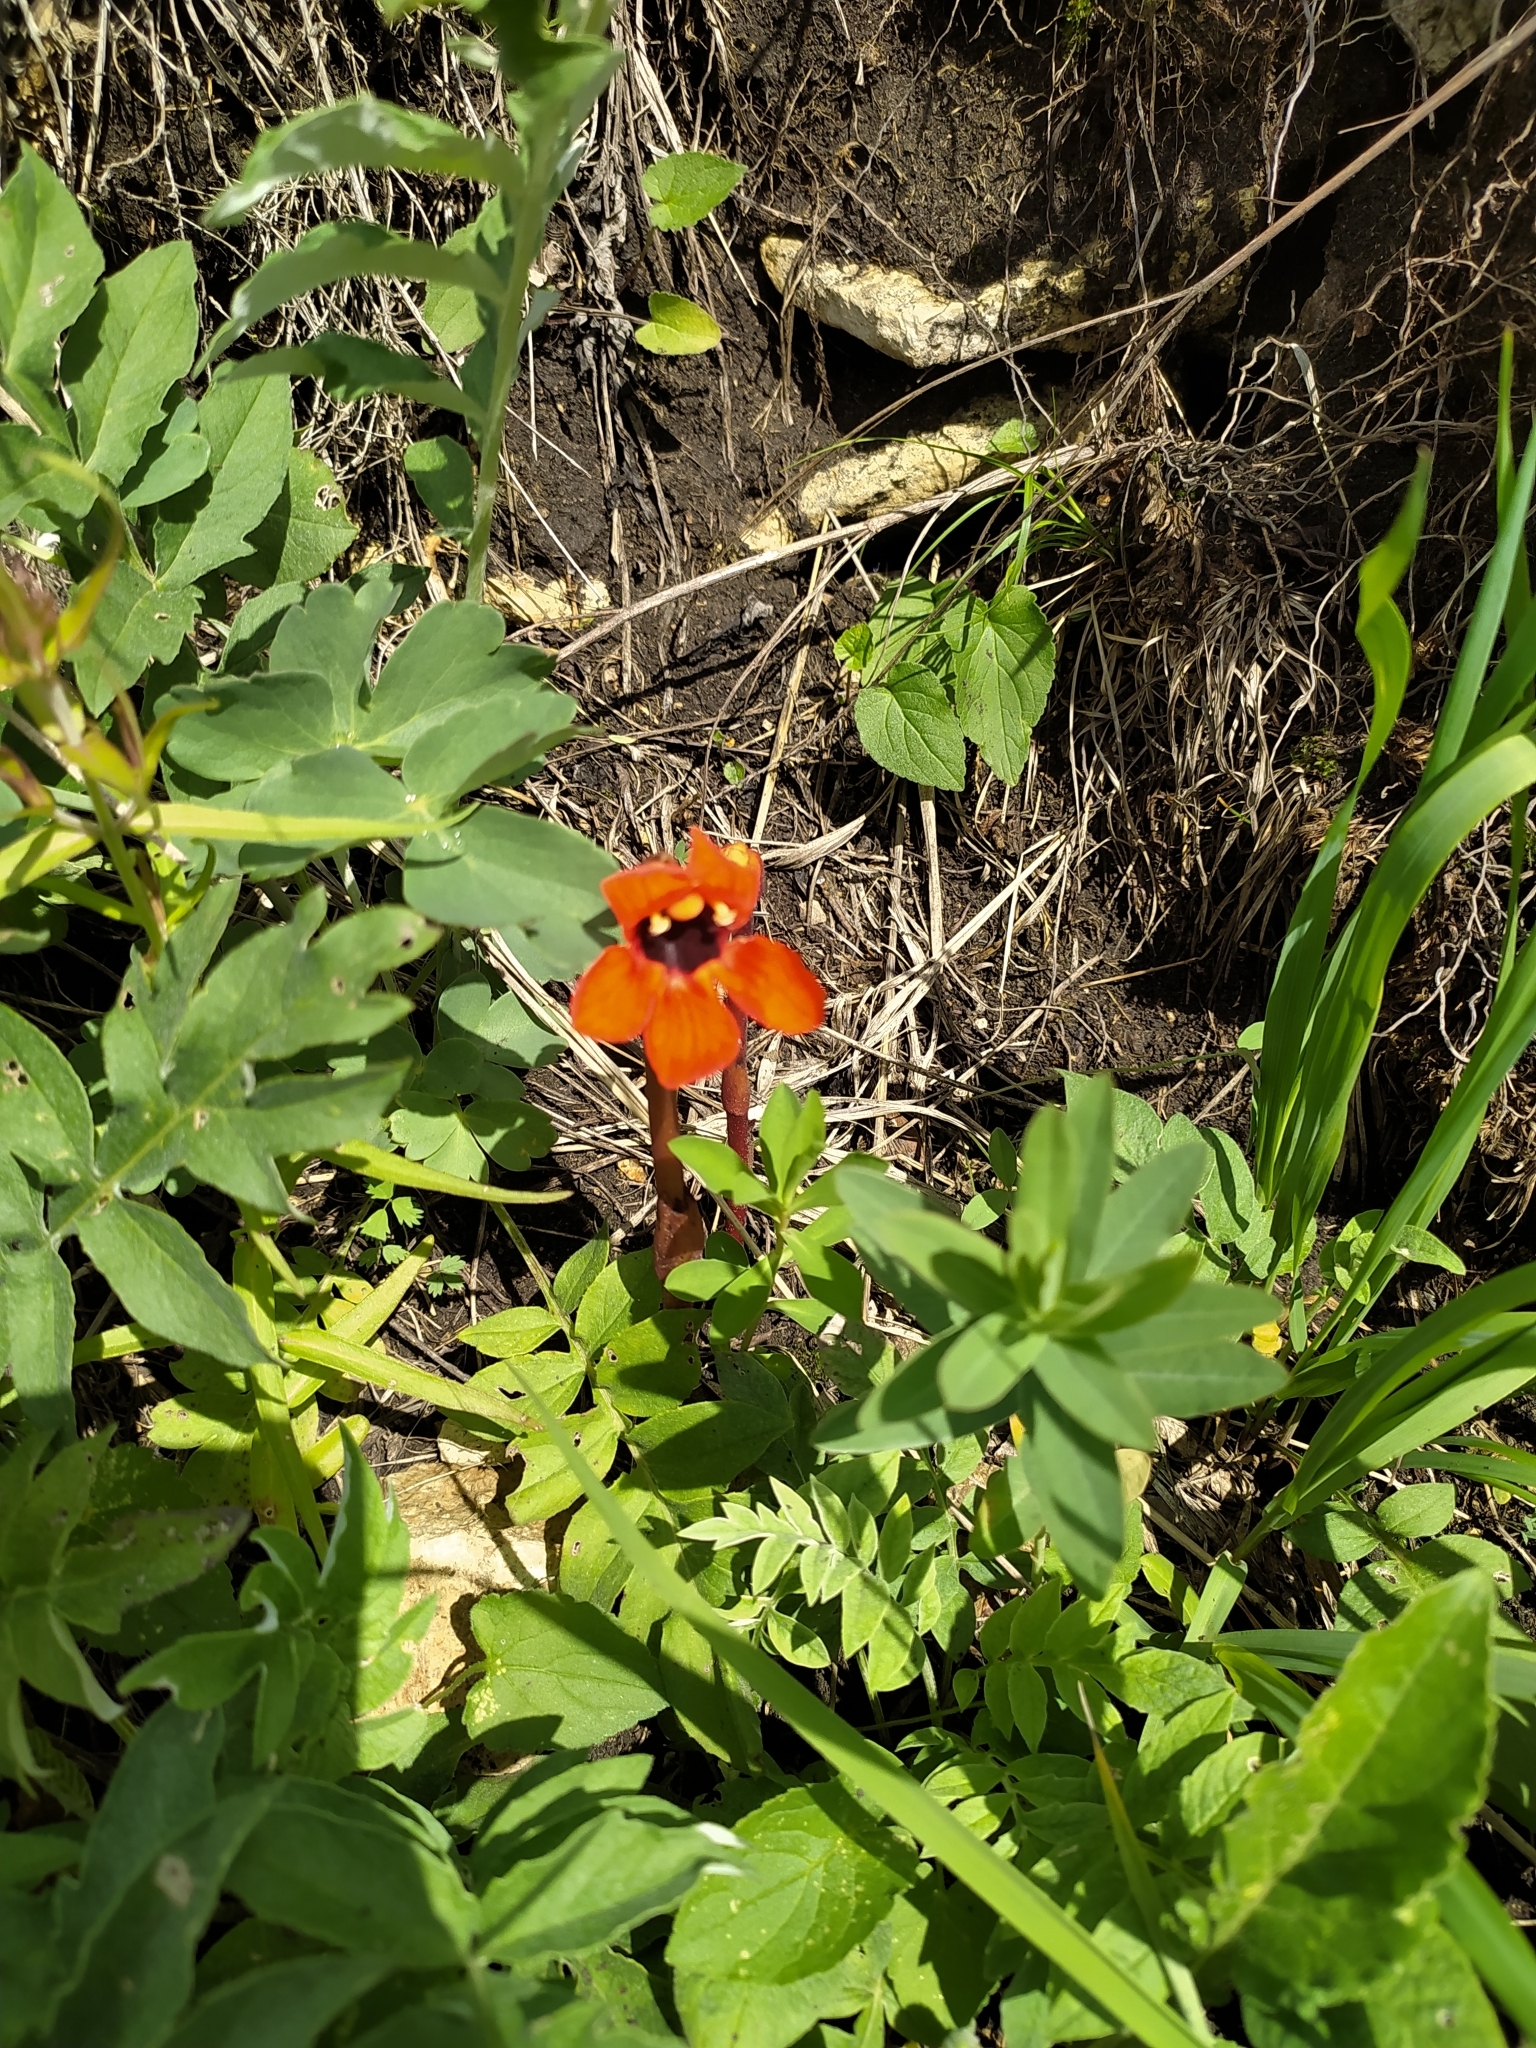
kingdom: Plantae
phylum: Tracheophyta
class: Magnoliopsida
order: Lamiales
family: Orobanchaceae
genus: Diphelypaea
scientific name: Diphelypaea coccinea
